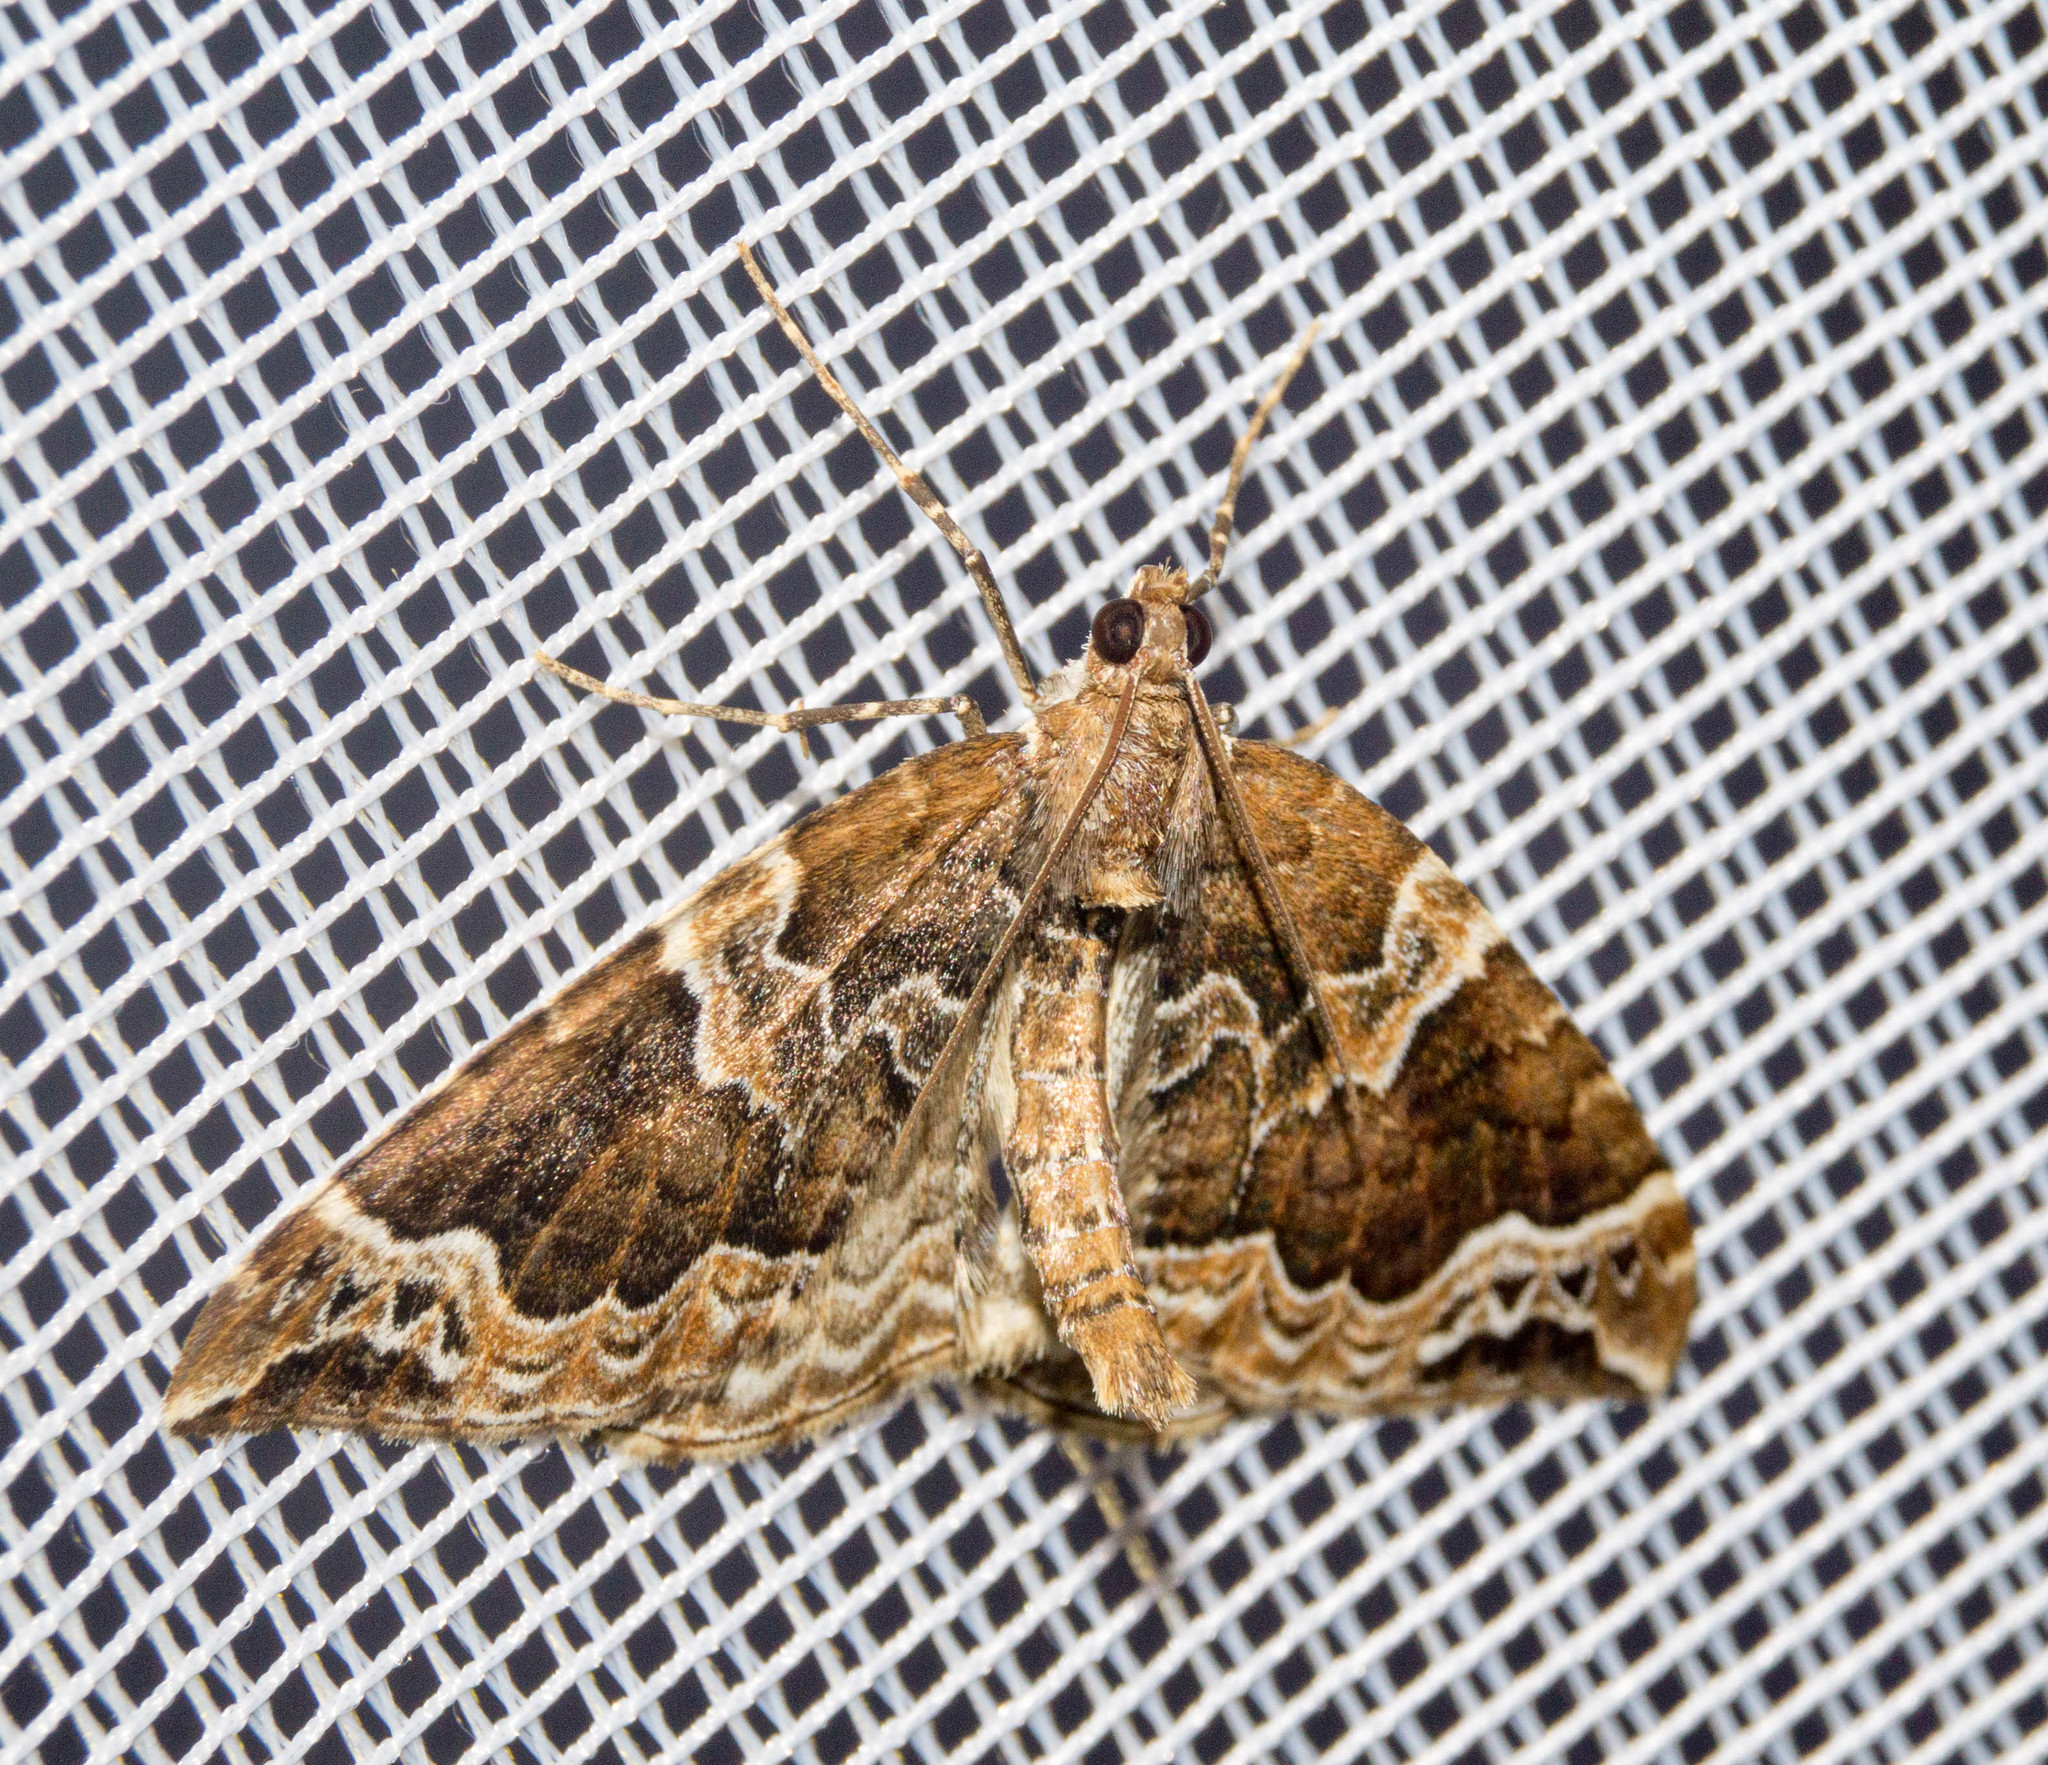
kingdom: Animalia
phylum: Arthropoda
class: Insecta
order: Lepidoptera
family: Geometridae
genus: Eulithis
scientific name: Eulithis prunata
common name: Phoenix
